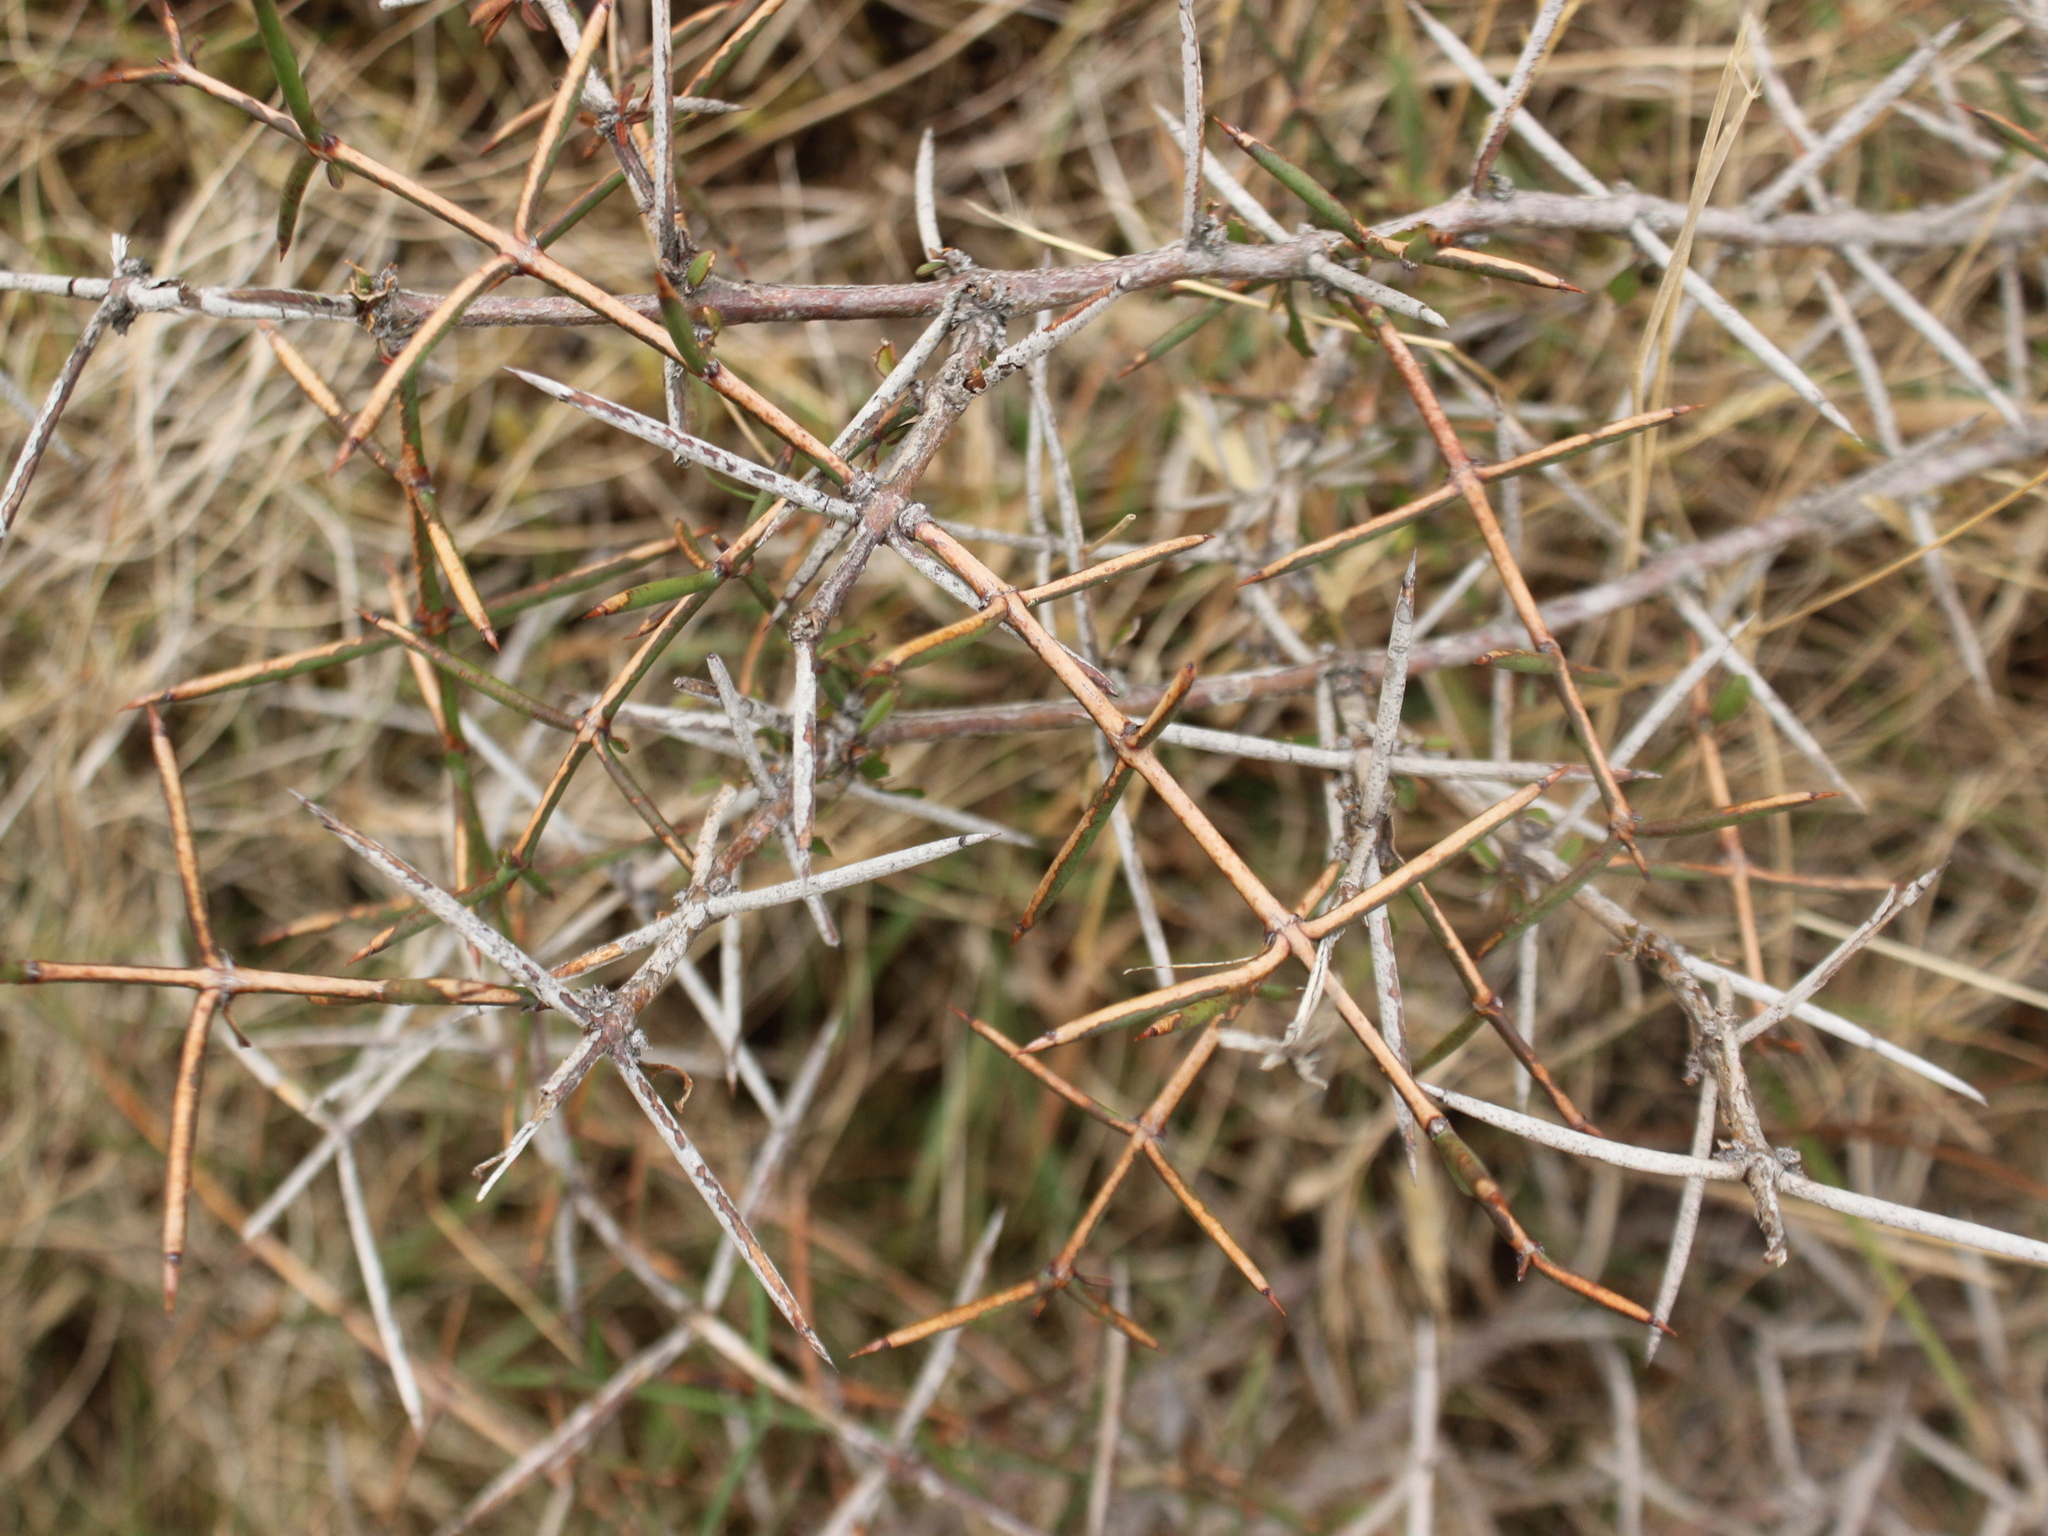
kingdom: Plantae
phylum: Tracheophyta
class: Magnoliopsida
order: Rosales
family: Rhamnaceae
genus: Discaria
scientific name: Discaria toumatou
